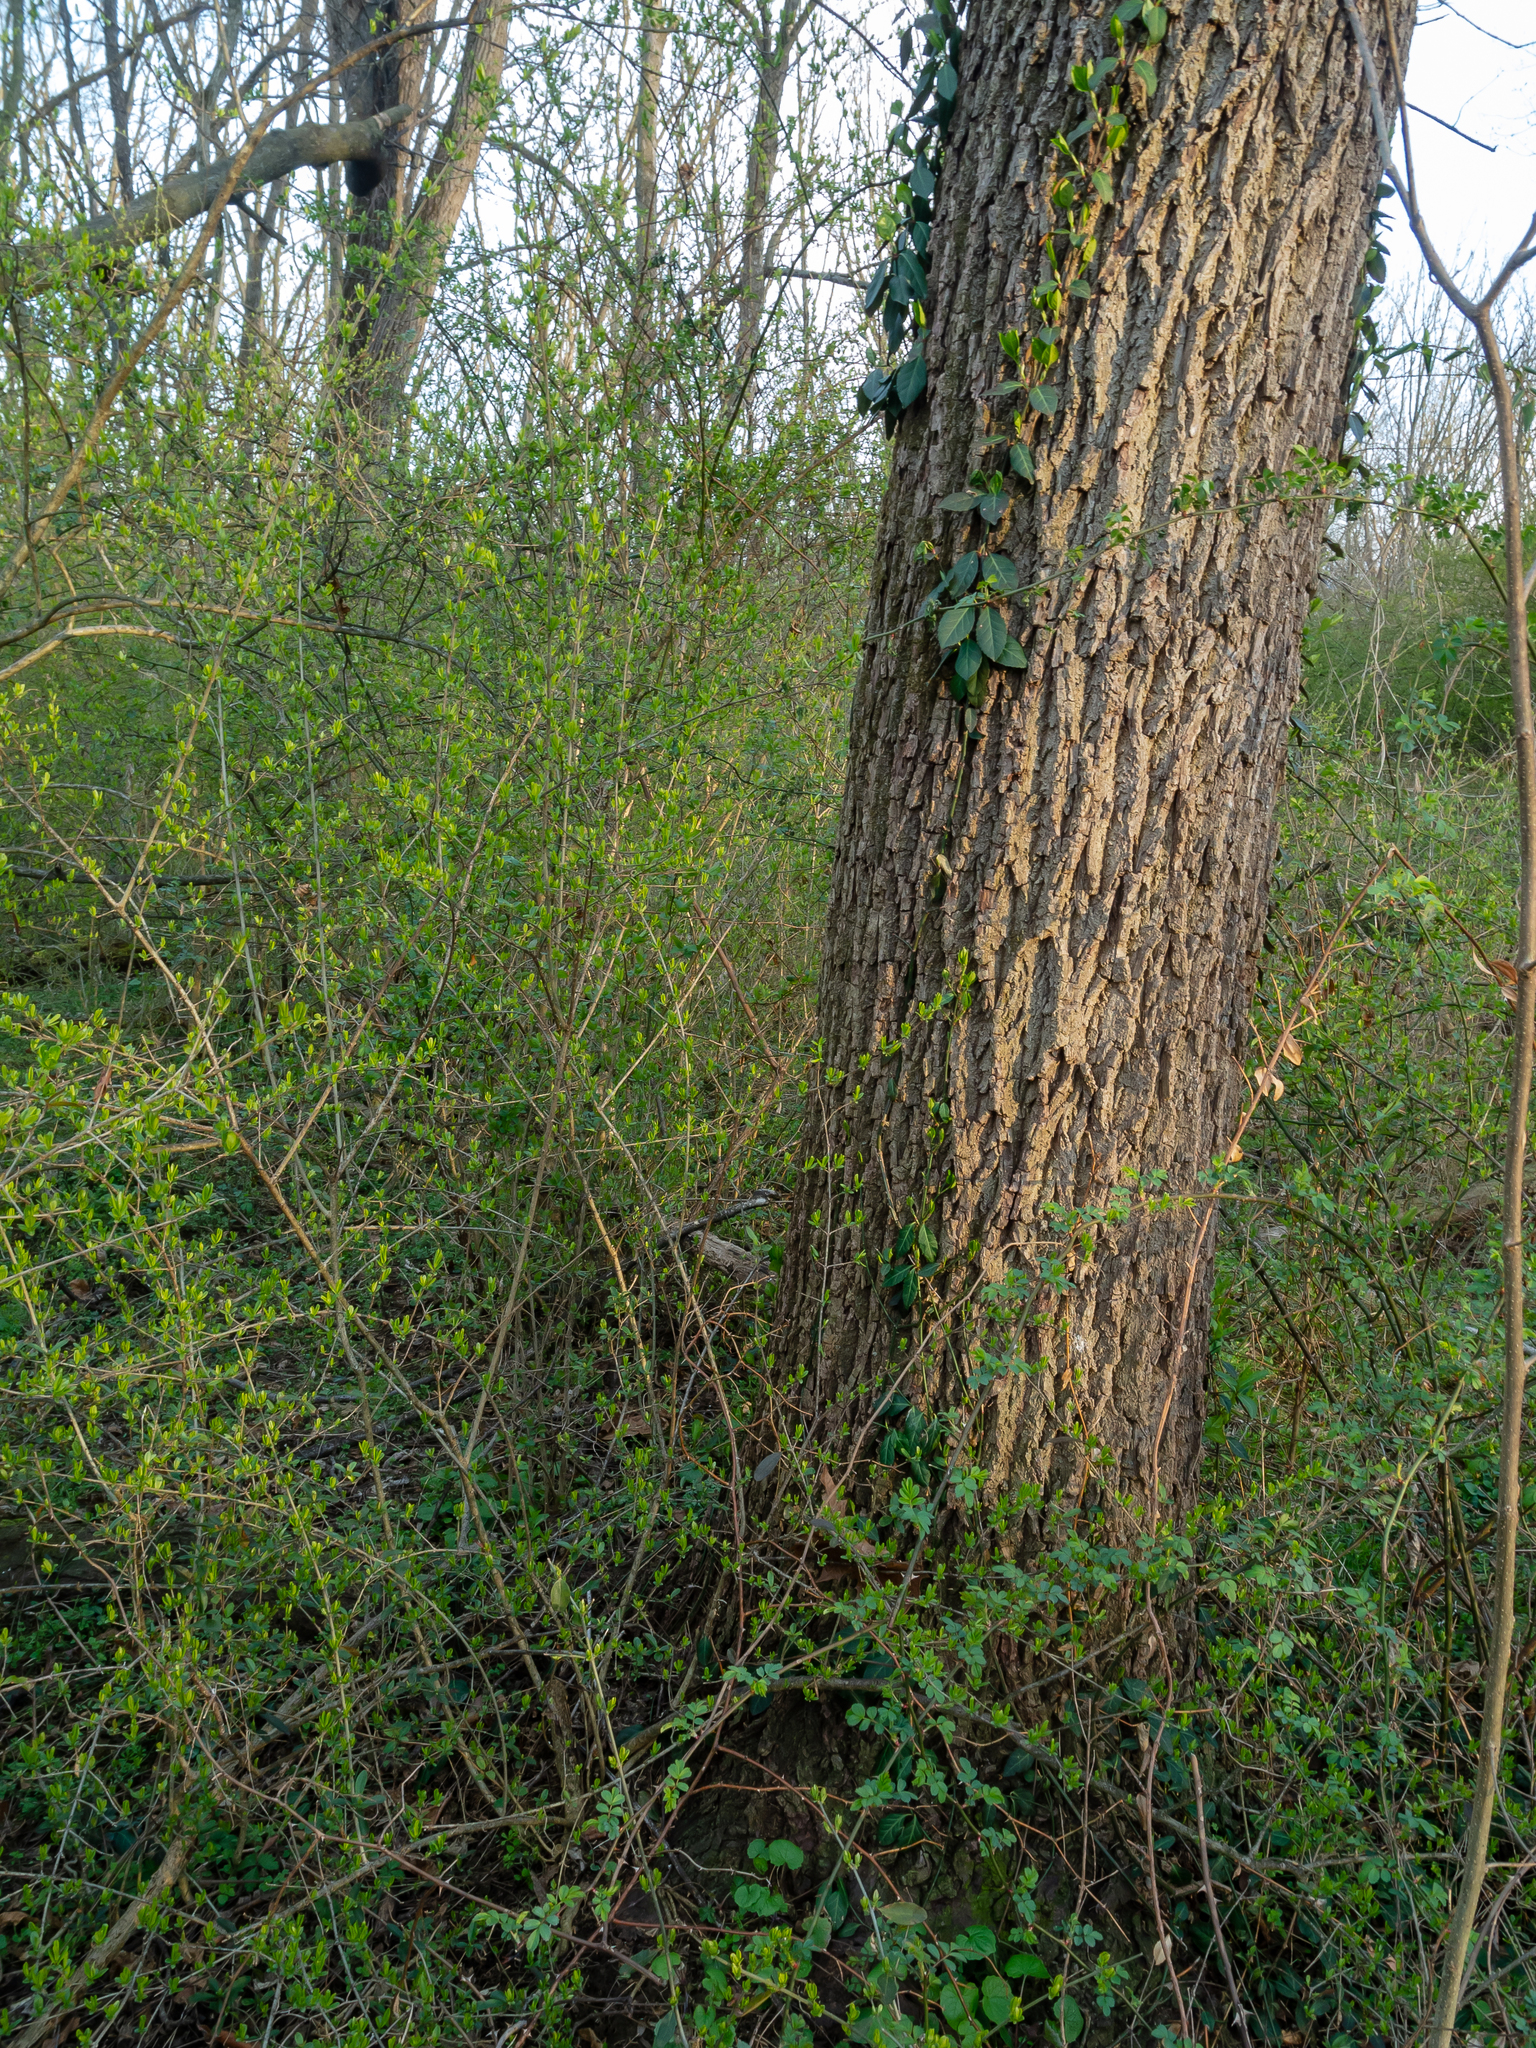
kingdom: Plantae
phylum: Tracheophyta
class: Magnoliopsida
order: Rosales
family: Rosaceae
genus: Rosa
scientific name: Rosa multiflora
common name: Multiflora rose
